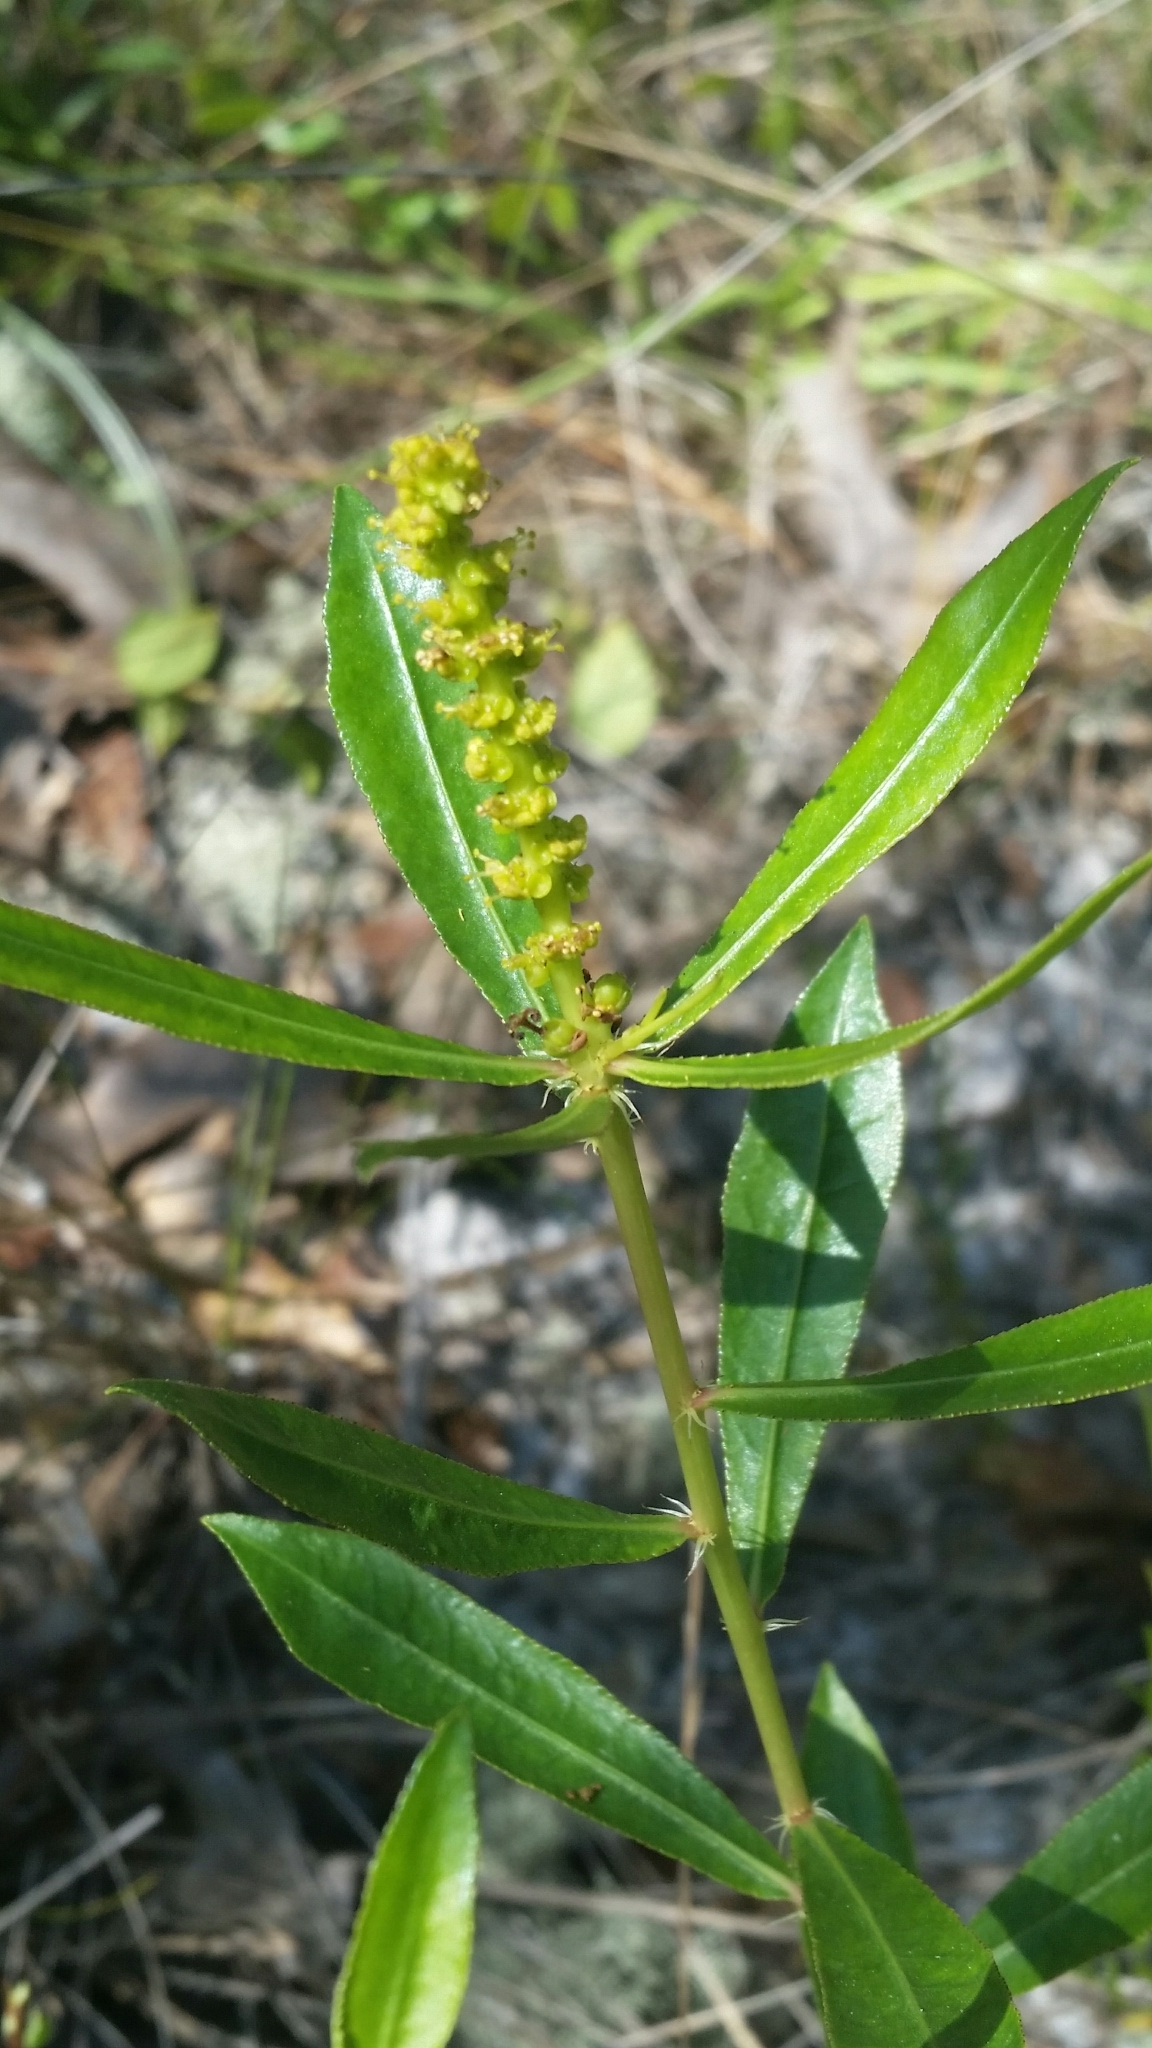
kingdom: Plantae
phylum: Tracheophyta
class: Magnoliopsida
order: Malpighiales
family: Euphorbiaceae
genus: Stillingia
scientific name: Stillingia sylvatica
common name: Queen's-delight
